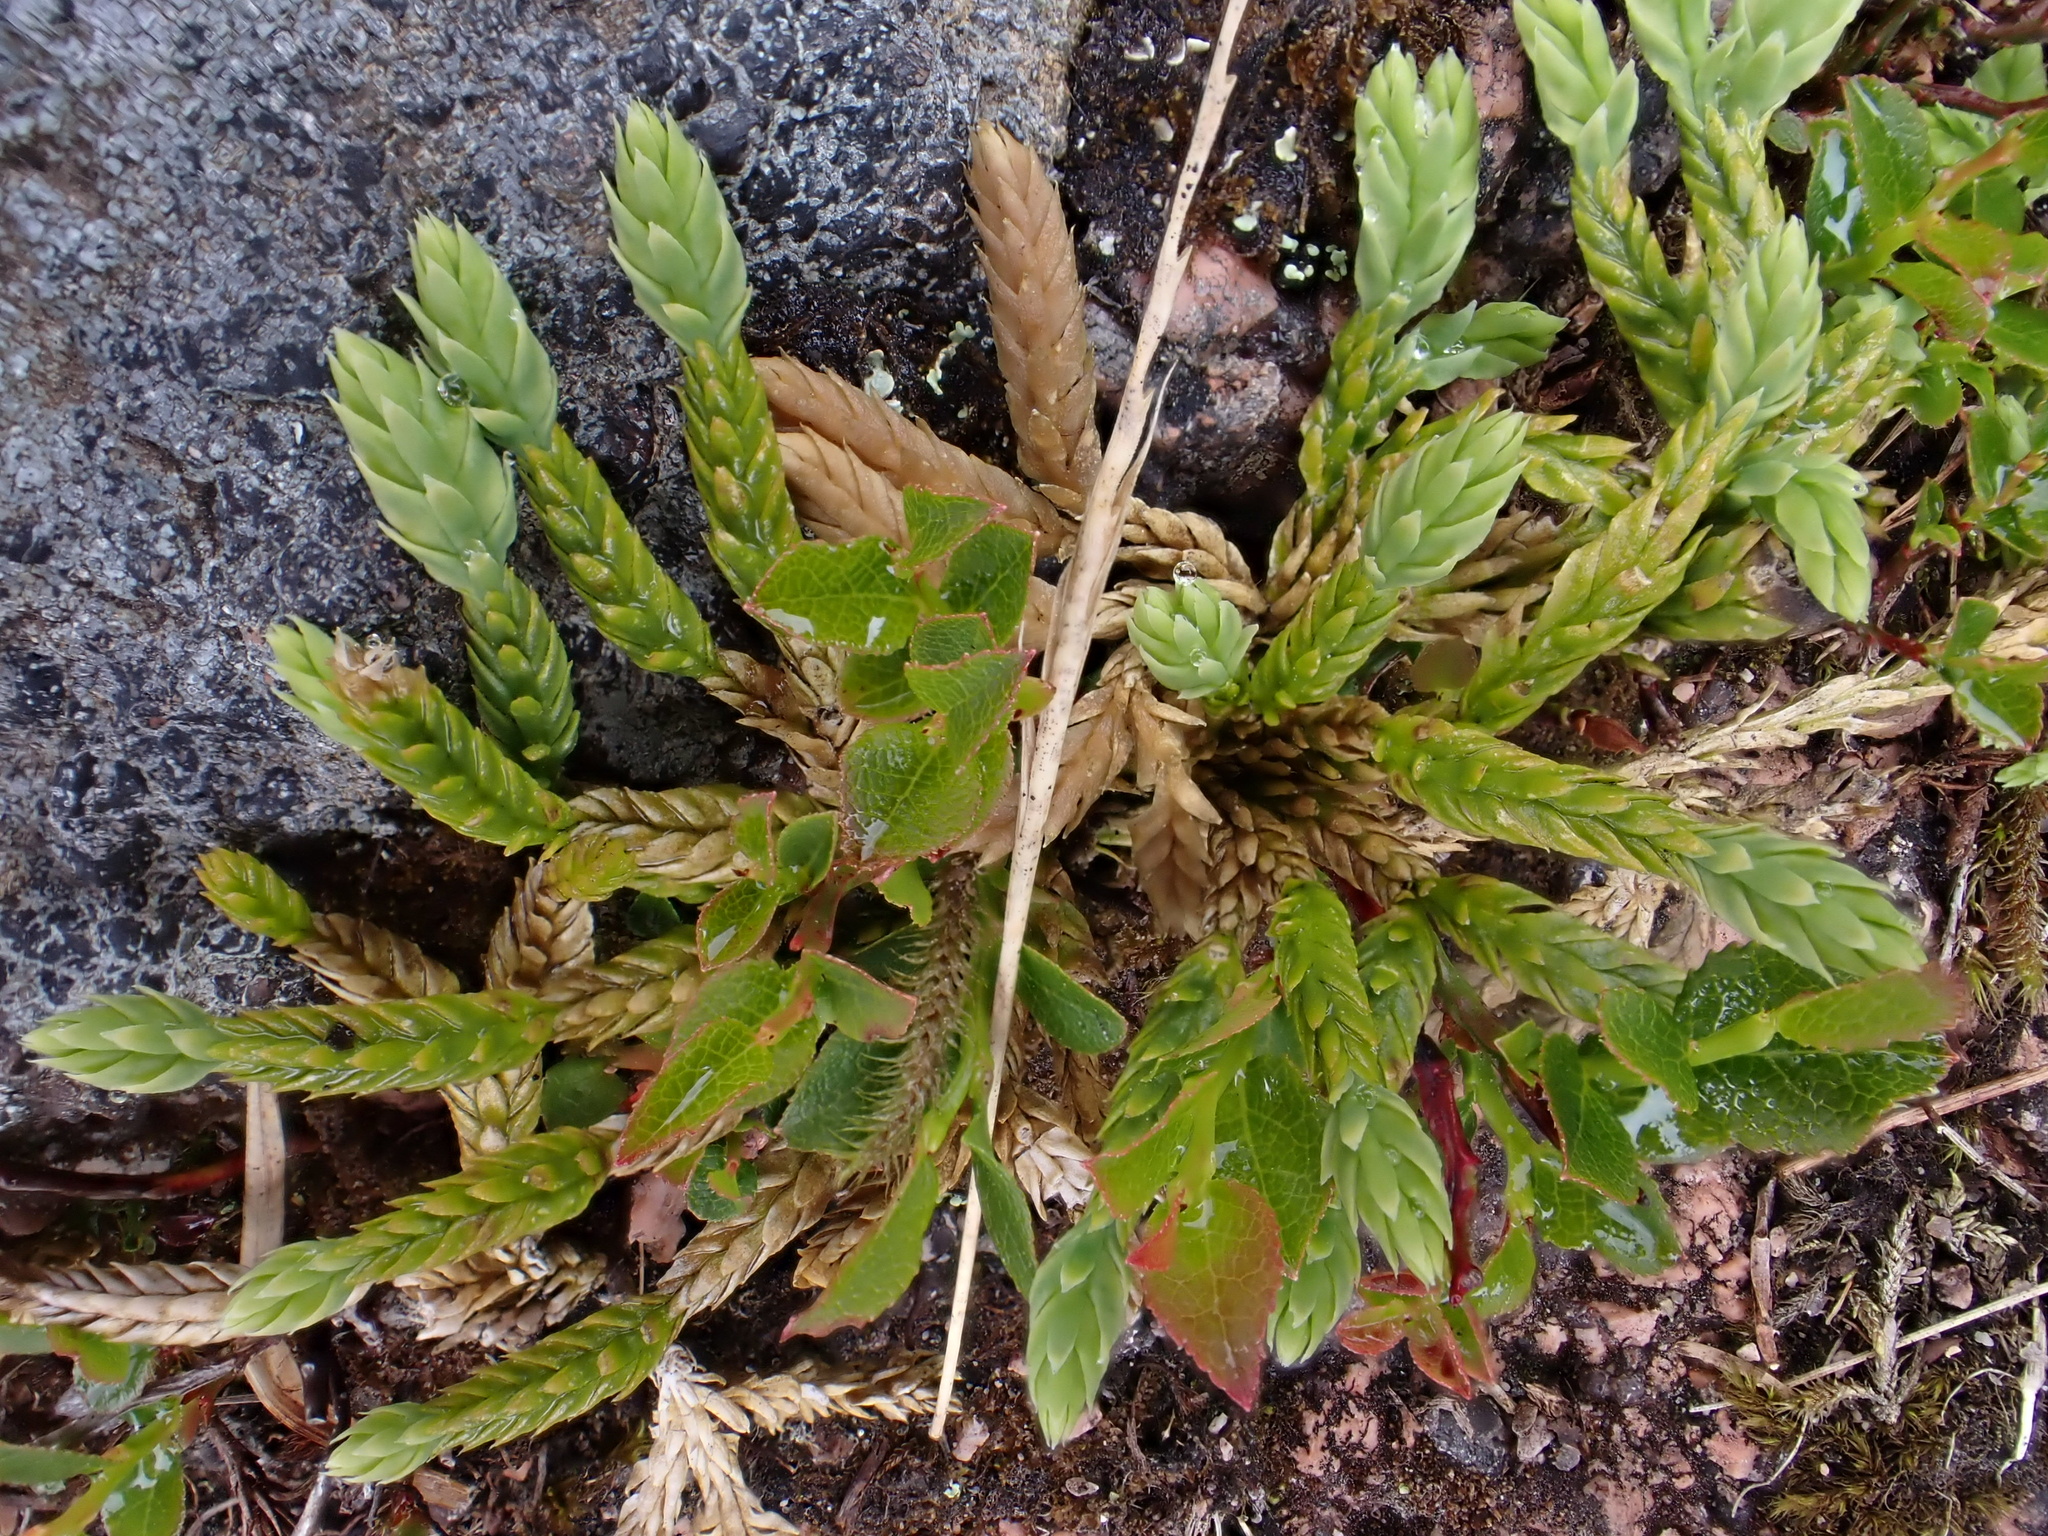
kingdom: Plantae
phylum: Tracheophyta
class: Lycopodiopsida
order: Lycopodiales
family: Lycopodiaceae
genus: Diphasiastrum
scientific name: Diphasiastrum alpinum
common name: Alpine clubmoss
